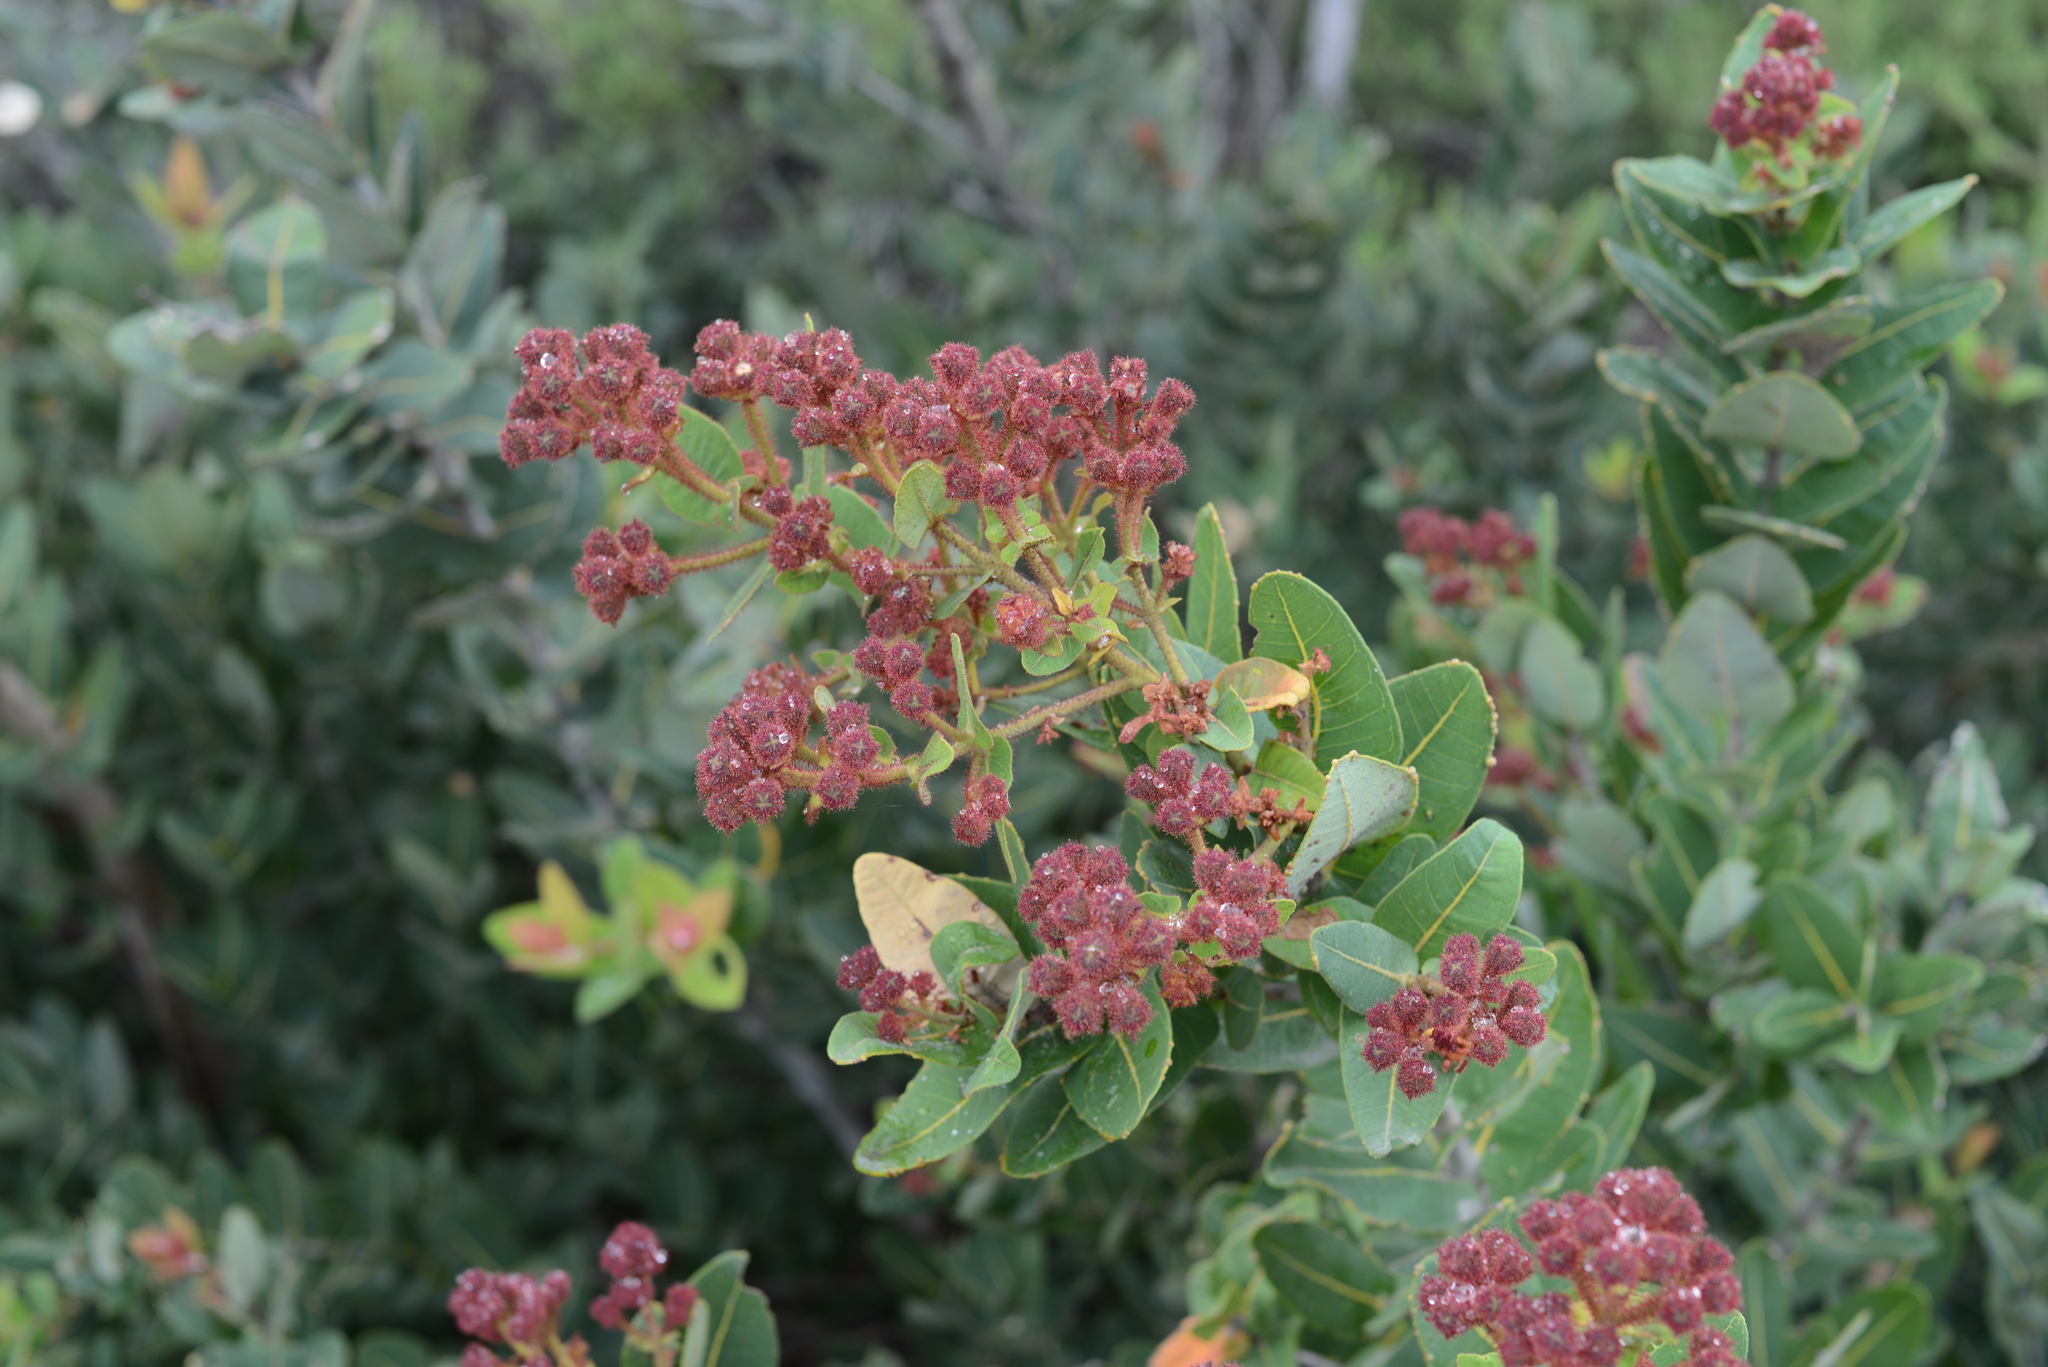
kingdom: Plantae
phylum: Tracheophyta
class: Magnoliopsida
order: Myrtales
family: Myrtaceae
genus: Angophora
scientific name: Angophora hispida
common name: Dwarf-apple
